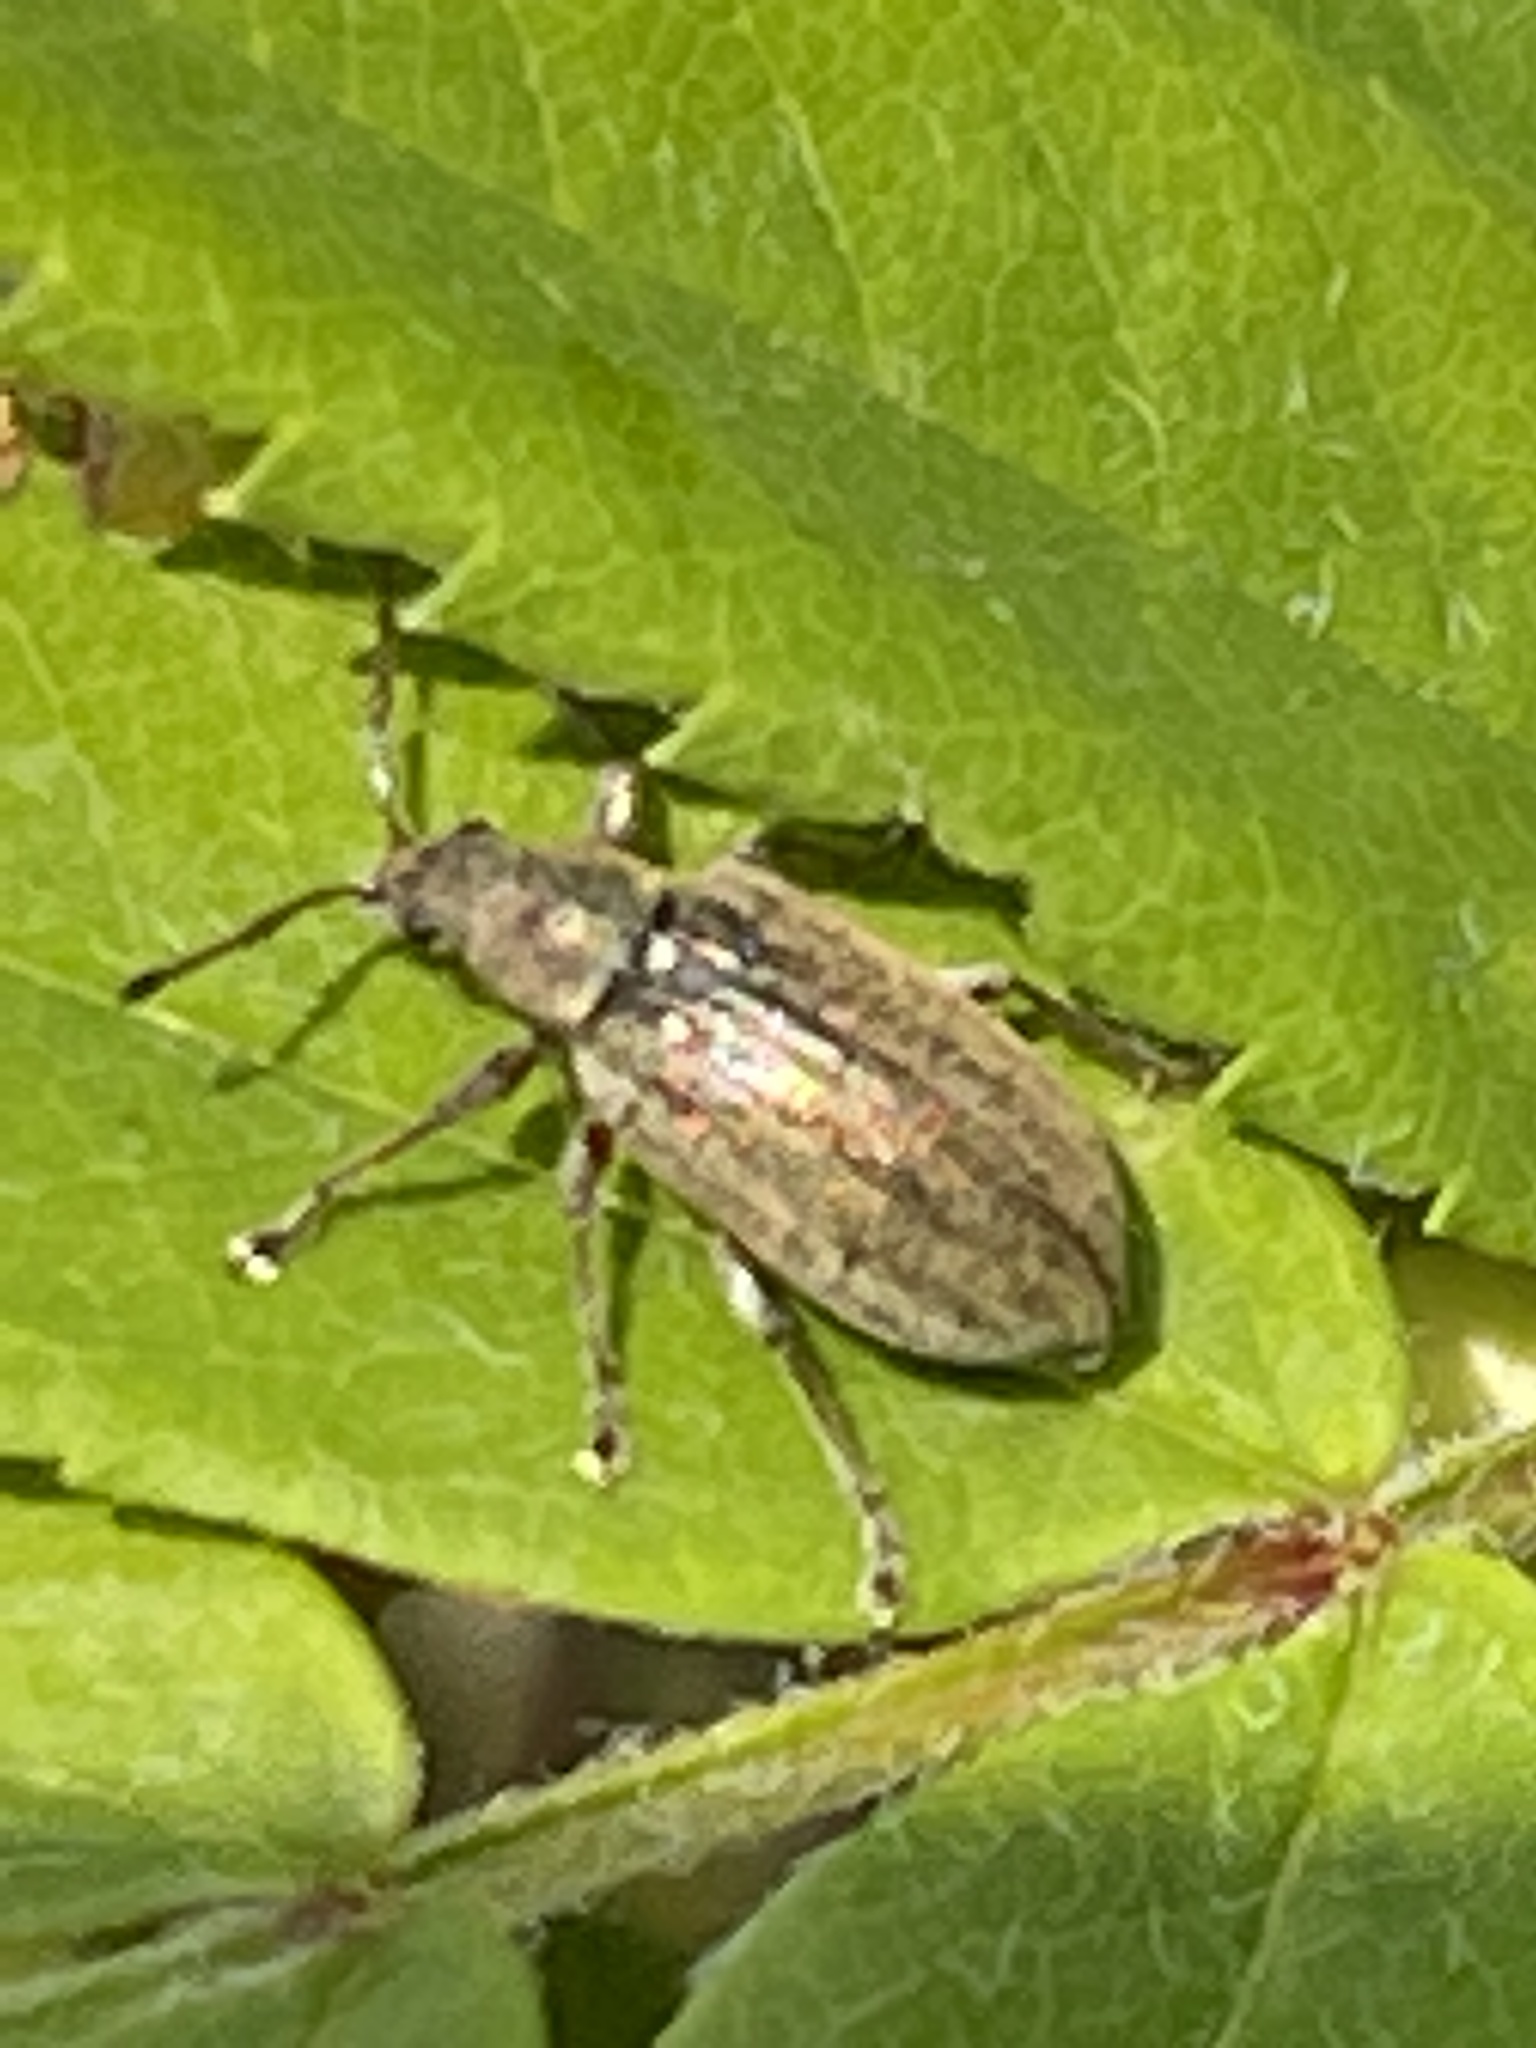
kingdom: Animalia
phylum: Arthropoda
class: Insecta
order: Coleoptera
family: Curculionidae
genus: Phyllobius
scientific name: Phyllobius pyri
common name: Common leaf weevil
